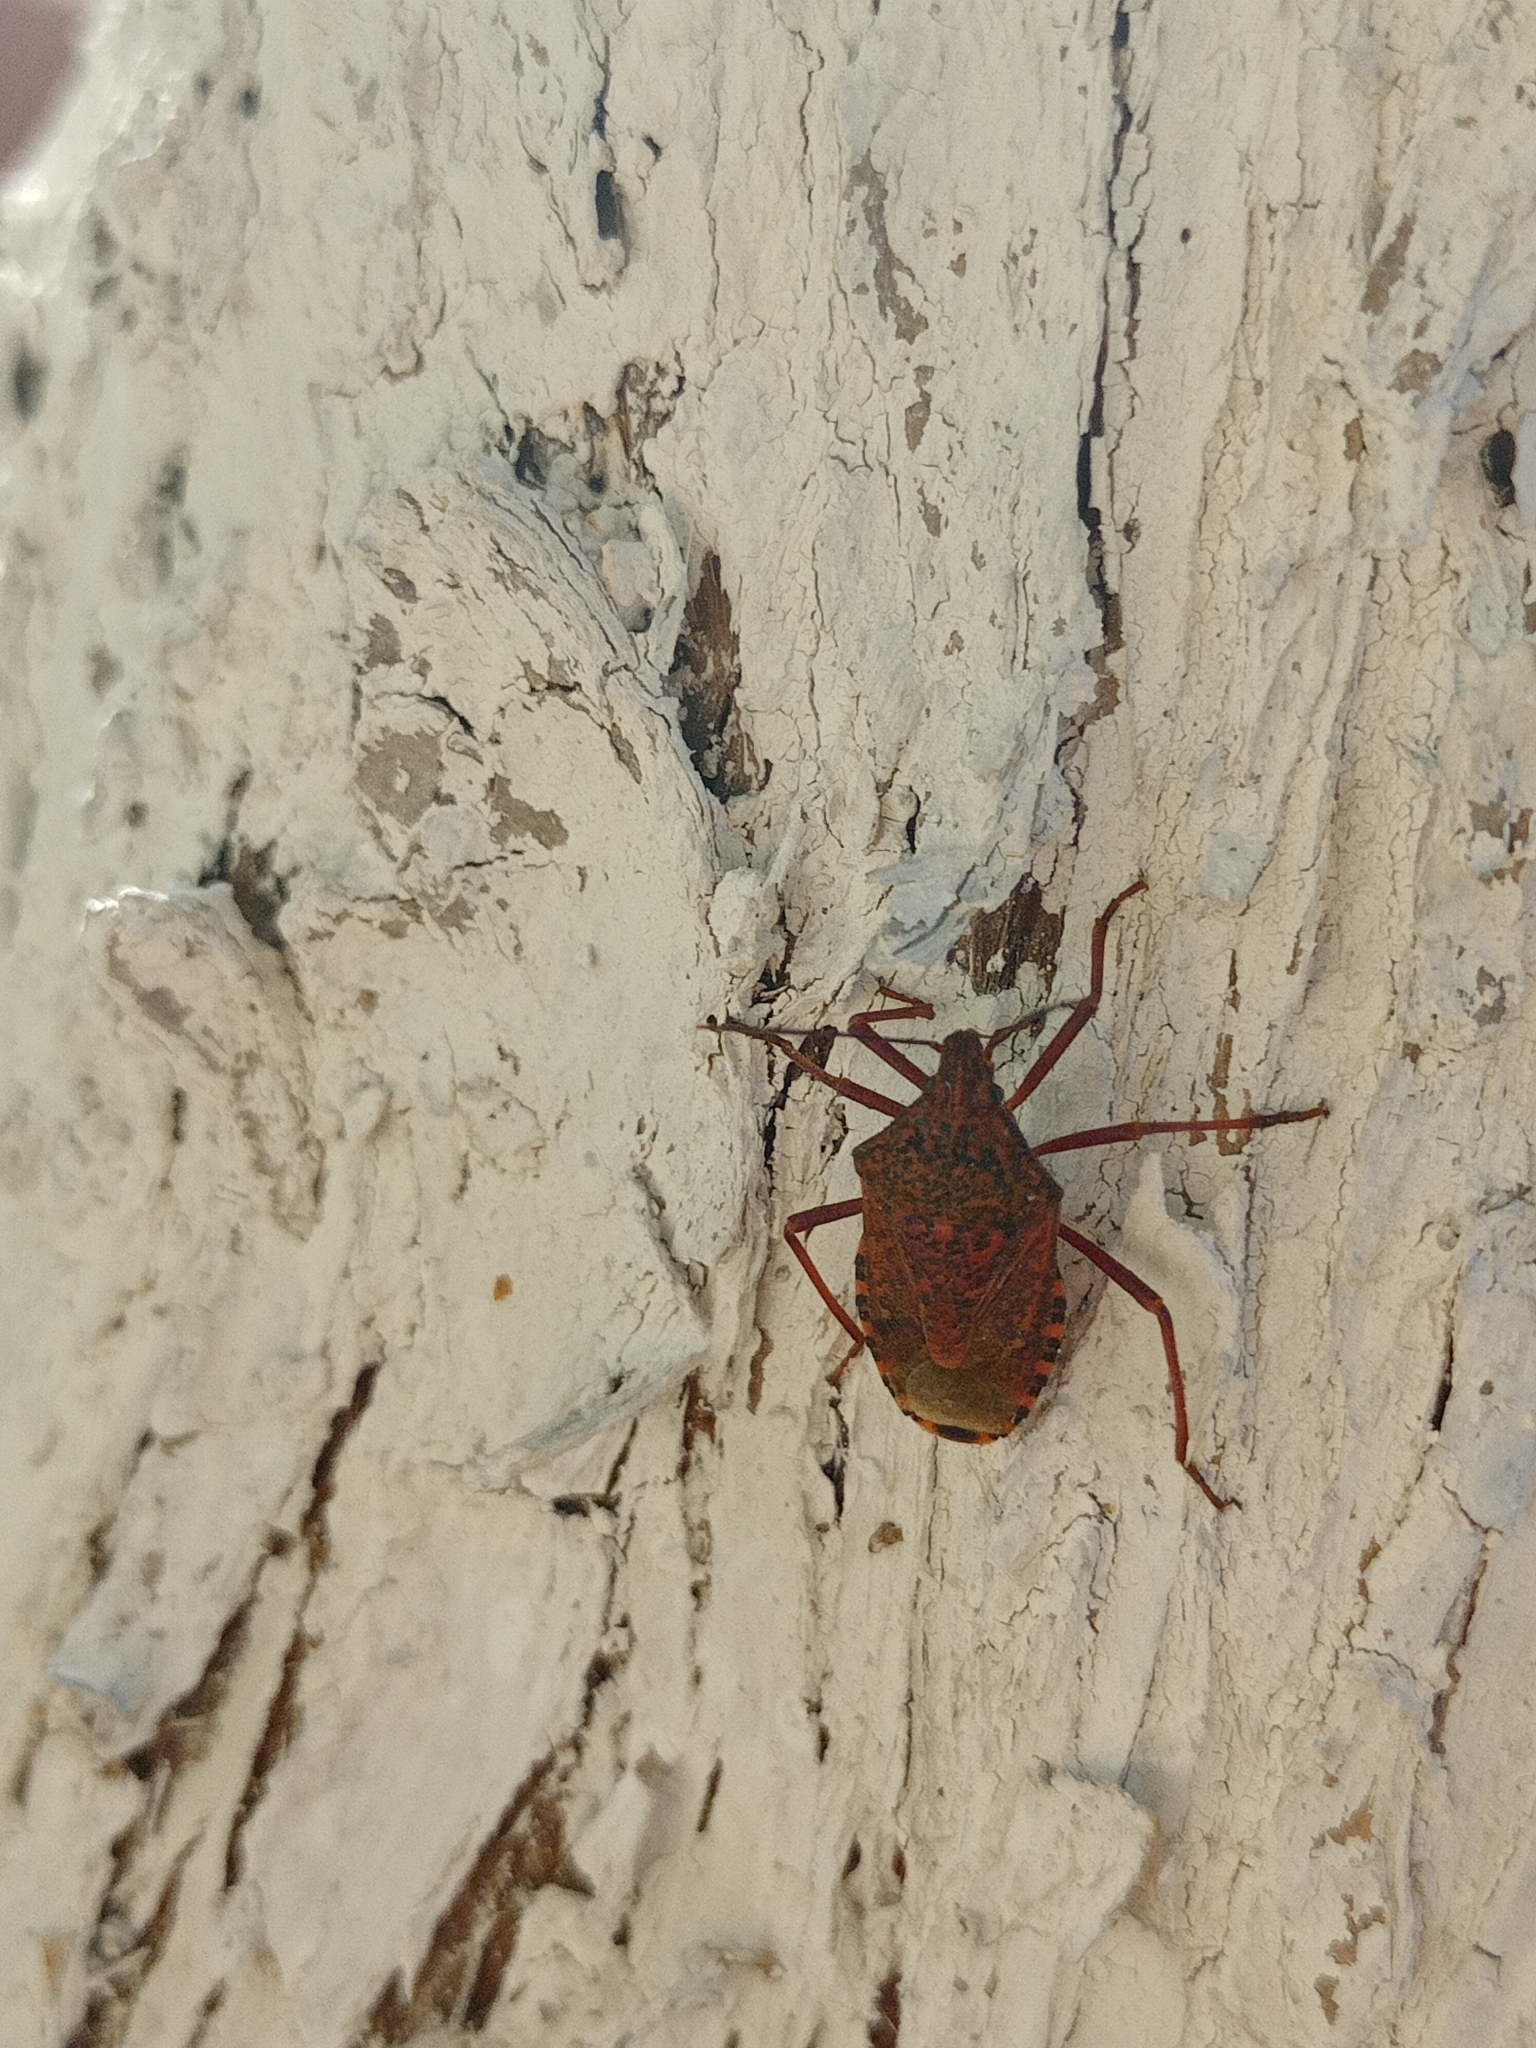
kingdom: Animalia
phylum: Arthropoda
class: Insecta
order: Hemiptera
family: Pentatomidae
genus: Apodiphus
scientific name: Apodiphus
